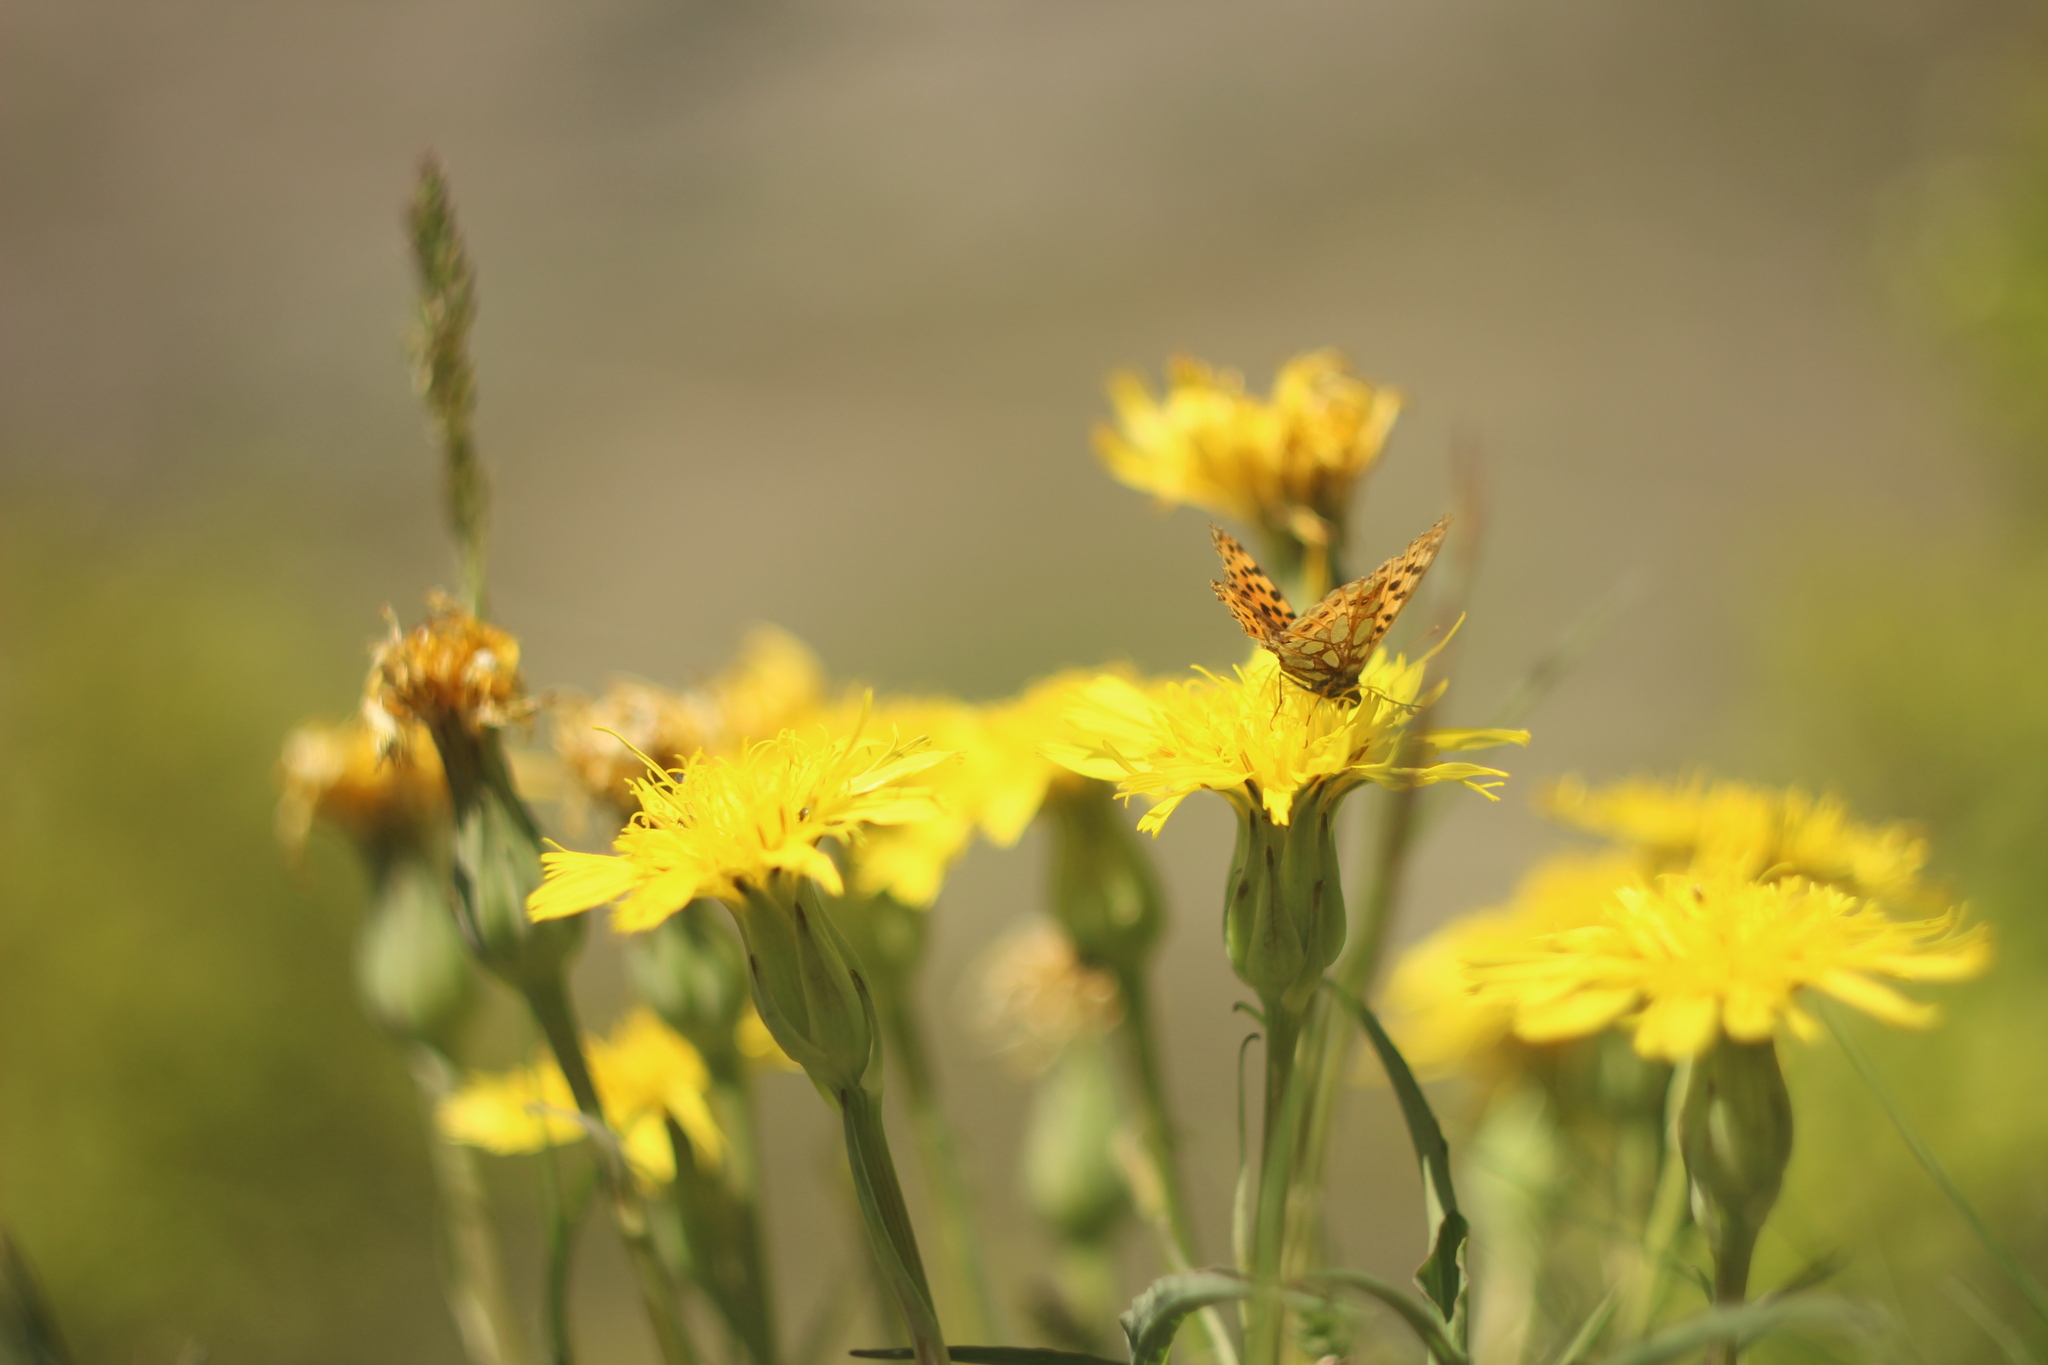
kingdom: Animalia
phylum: Arthropoda
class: Insecta
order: Lepidoptera
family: Nymphalidae
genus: Issoria
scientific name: Issoria lathonia
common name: Queen of spain fritillary
